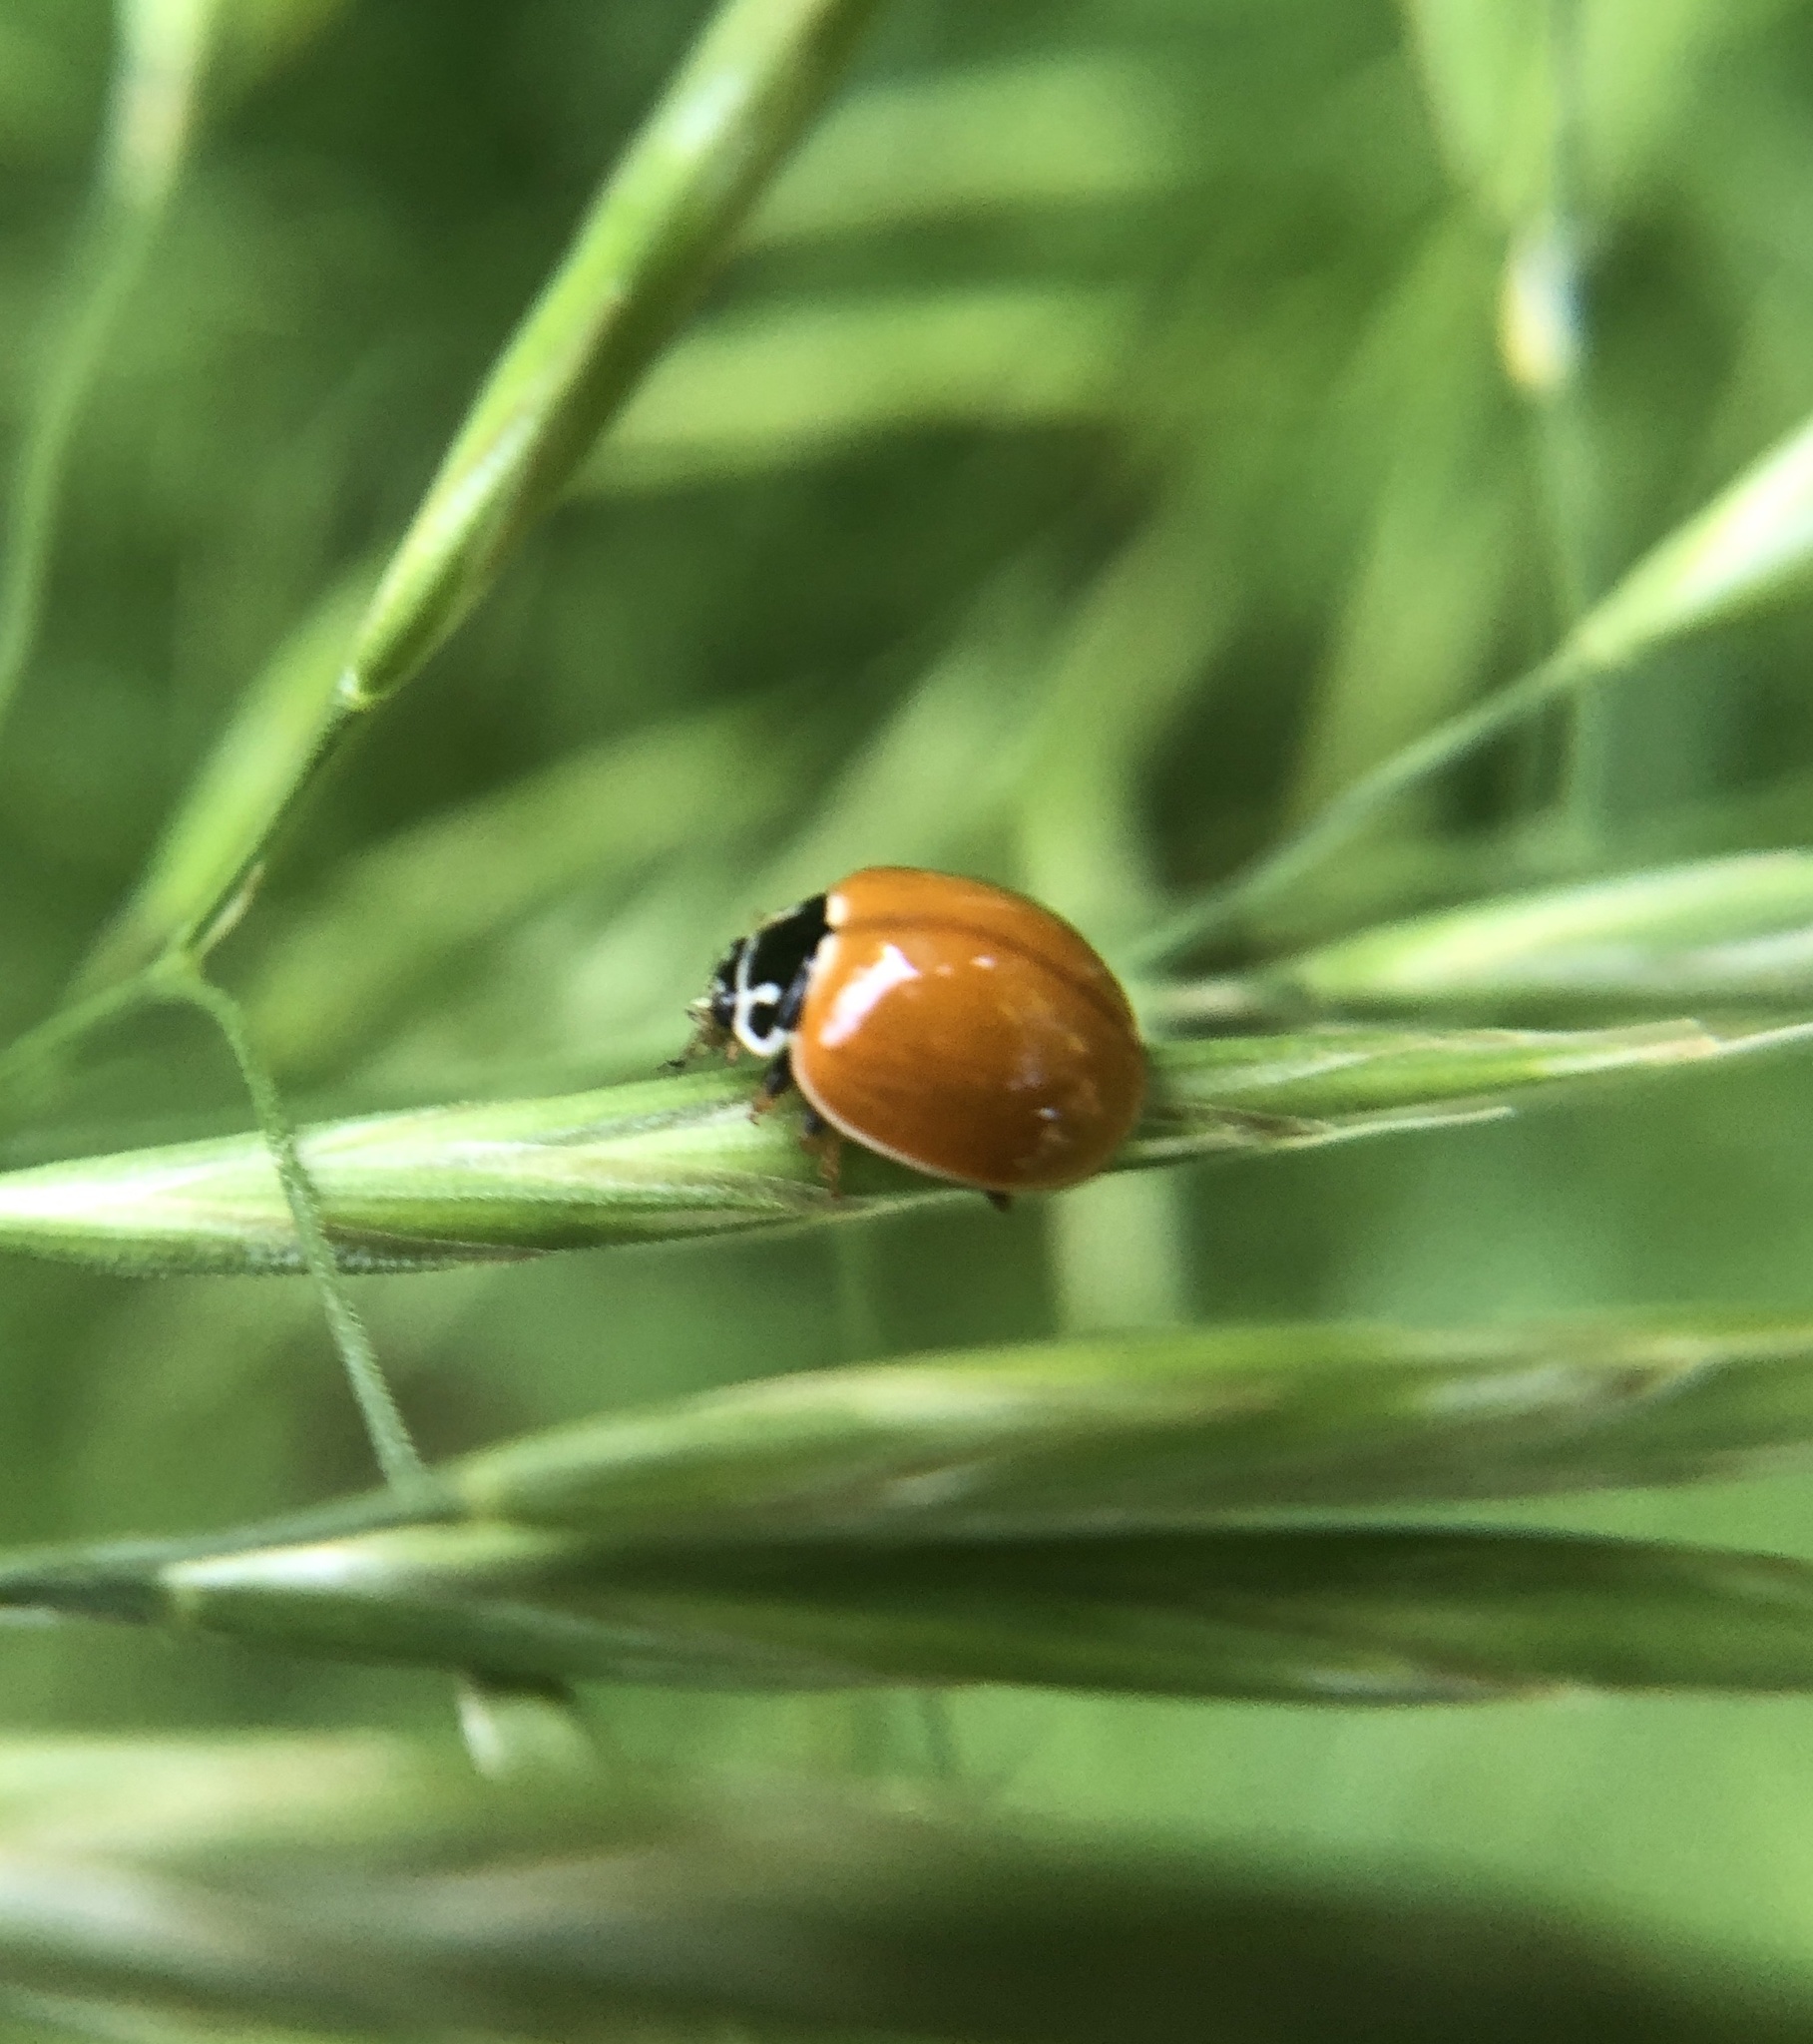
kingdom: Animalia
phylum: Arthropoda
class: Insecta
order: Coleoptera
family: Coccinellidae
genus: Cycloneda
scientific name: Cycloneda munda
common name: Polished lady beetle
